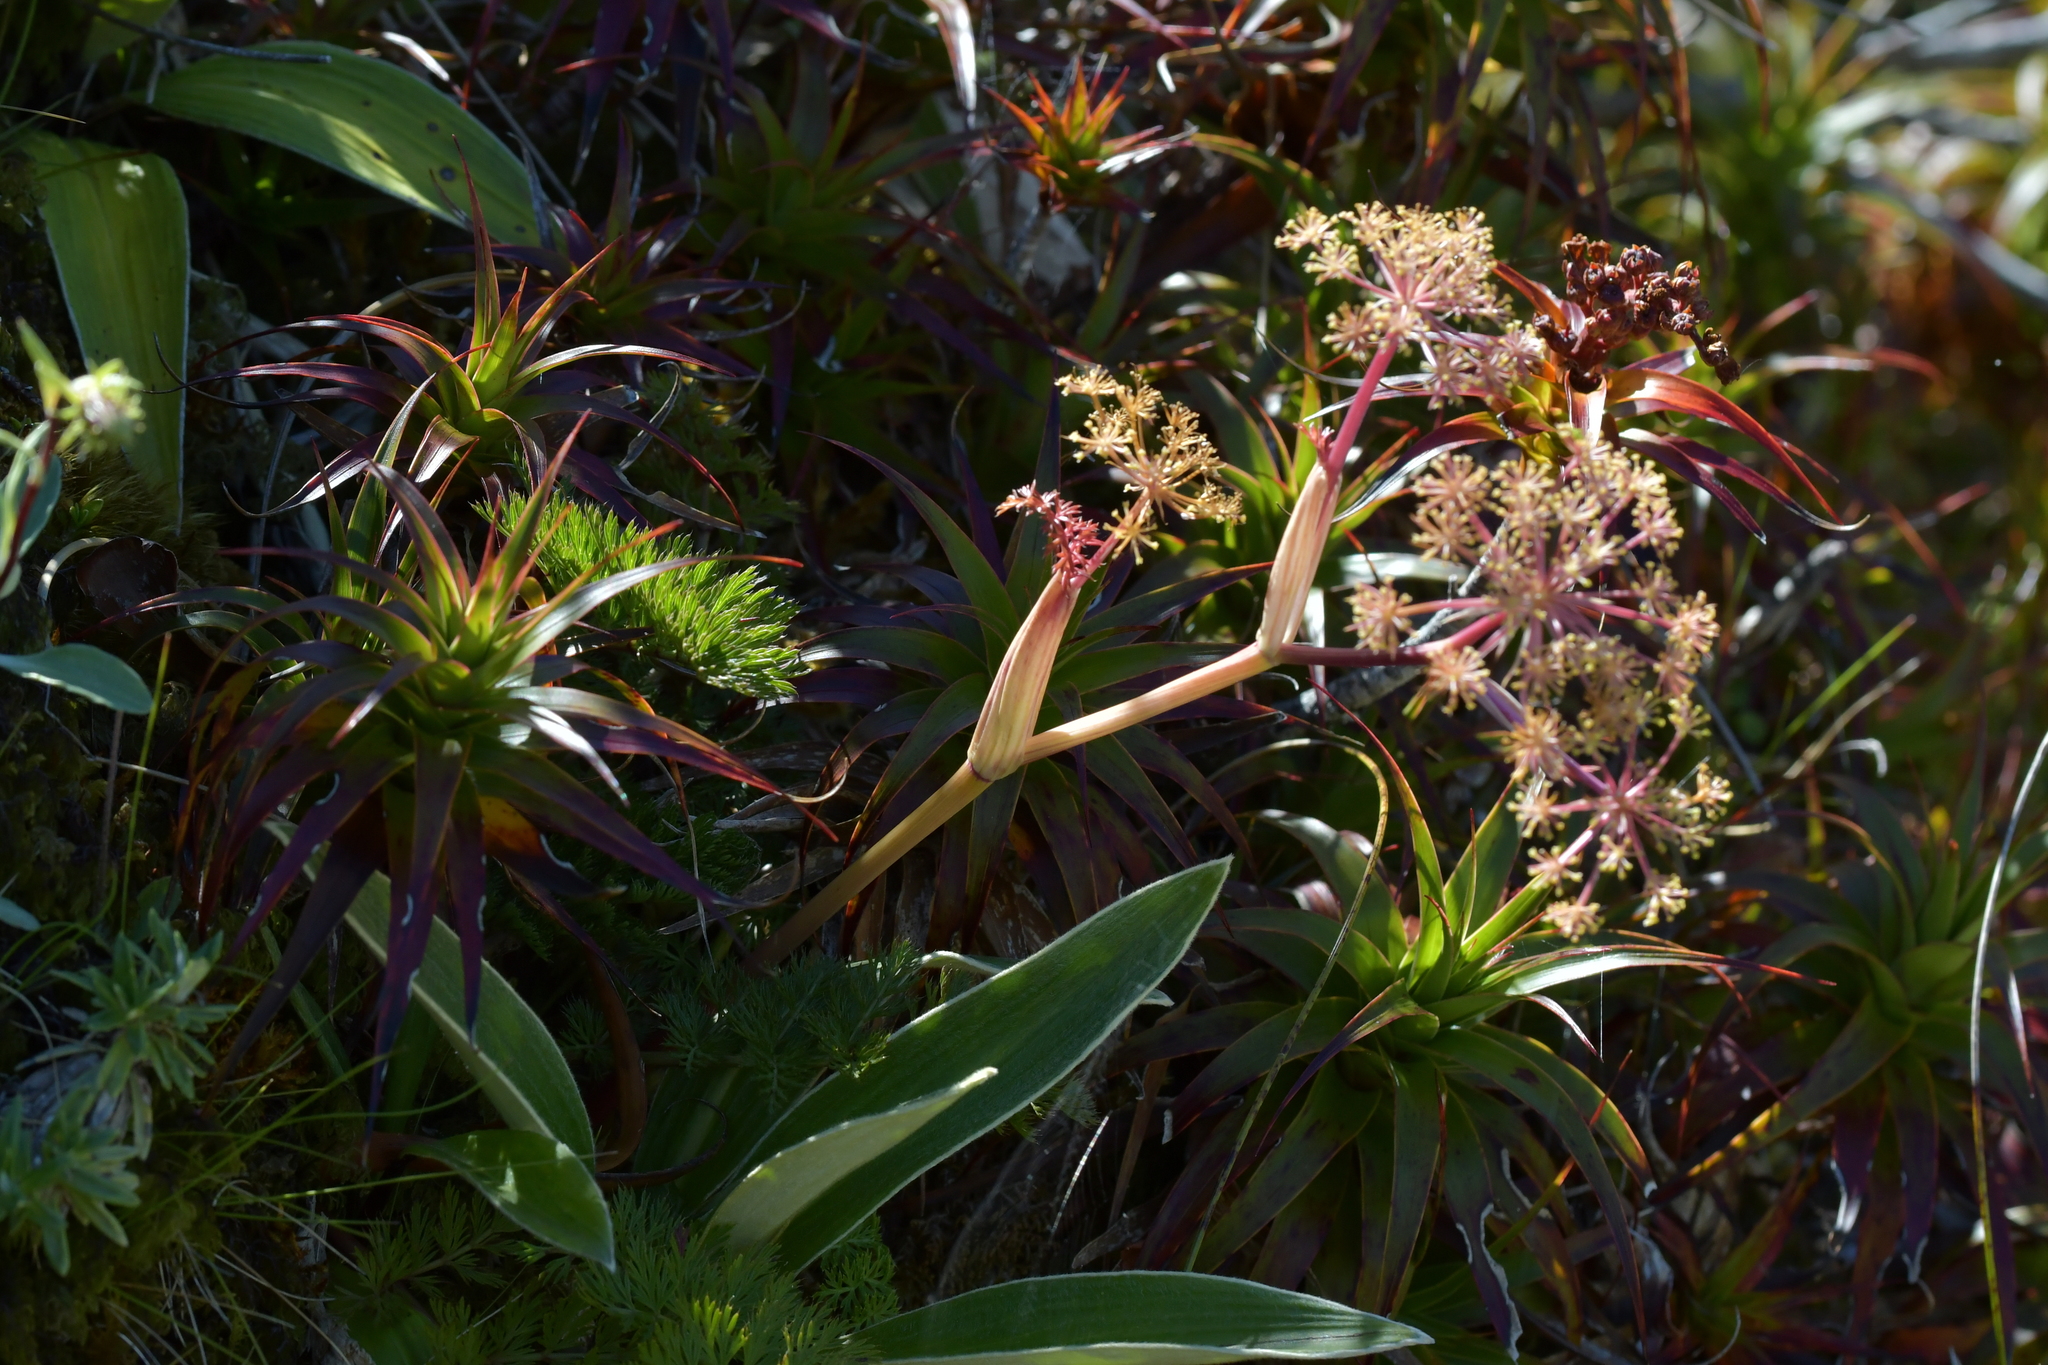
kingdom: Plantae
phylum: Tracheophyta
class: Magnoliopsida
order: Apiales
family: Apiaceae
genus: Anisotome
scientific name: Anisotome haastii
